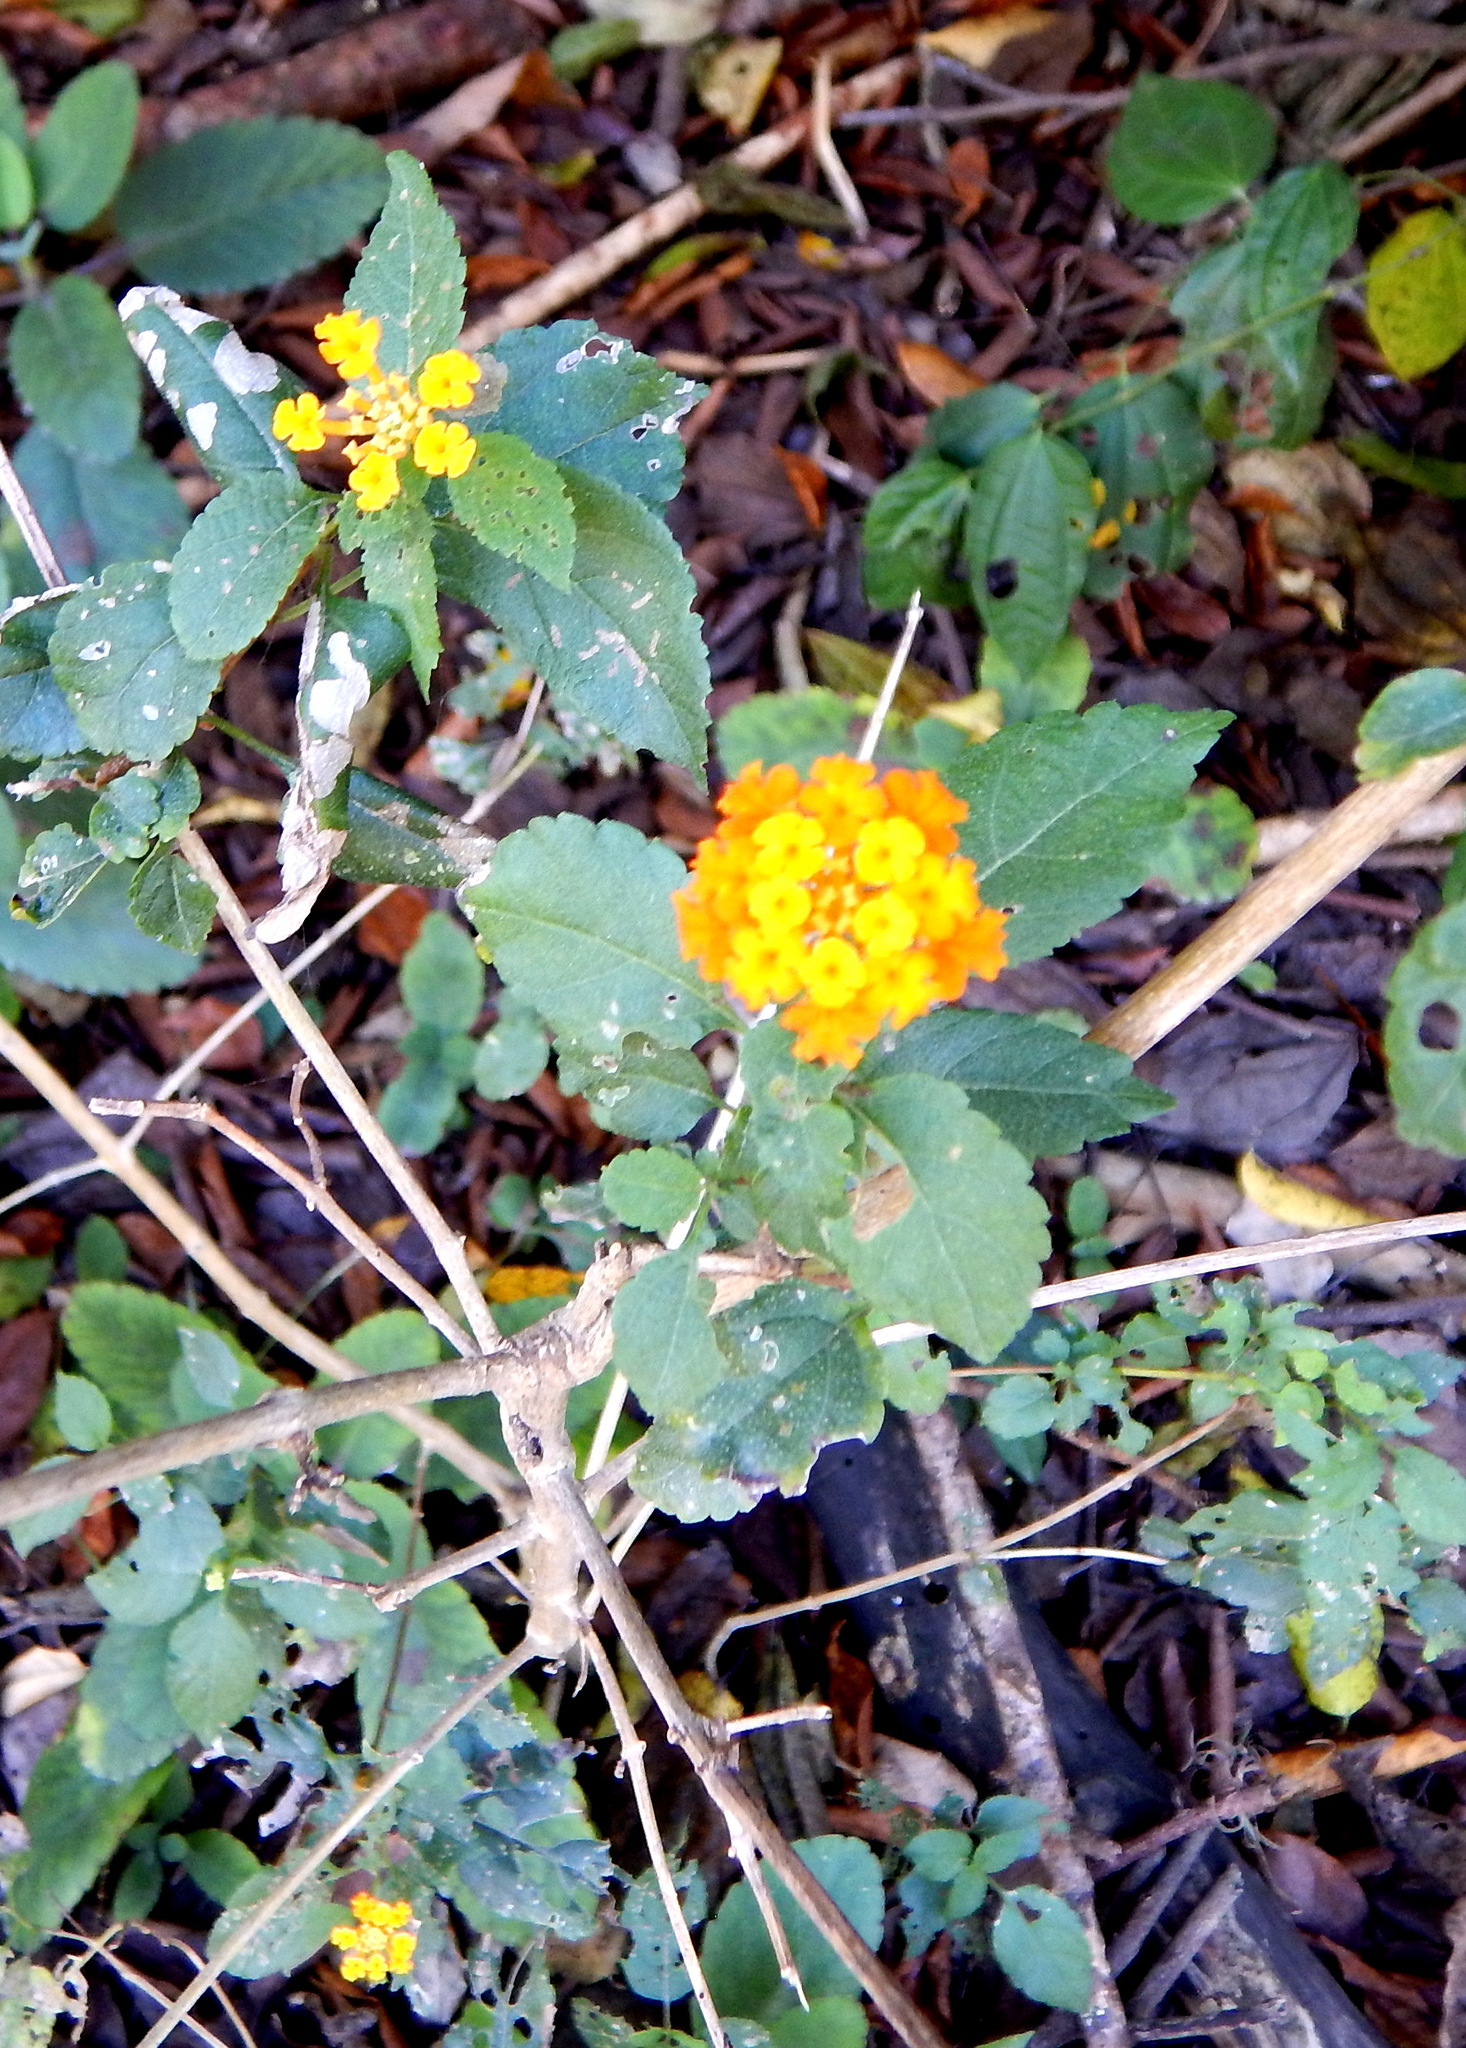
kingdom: Plantae
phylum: Tracheophyta
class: Magnoliopsida
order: Lamiales
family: Verbenaceae
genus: Lantana
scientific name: Lantana camara
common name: Lantana
